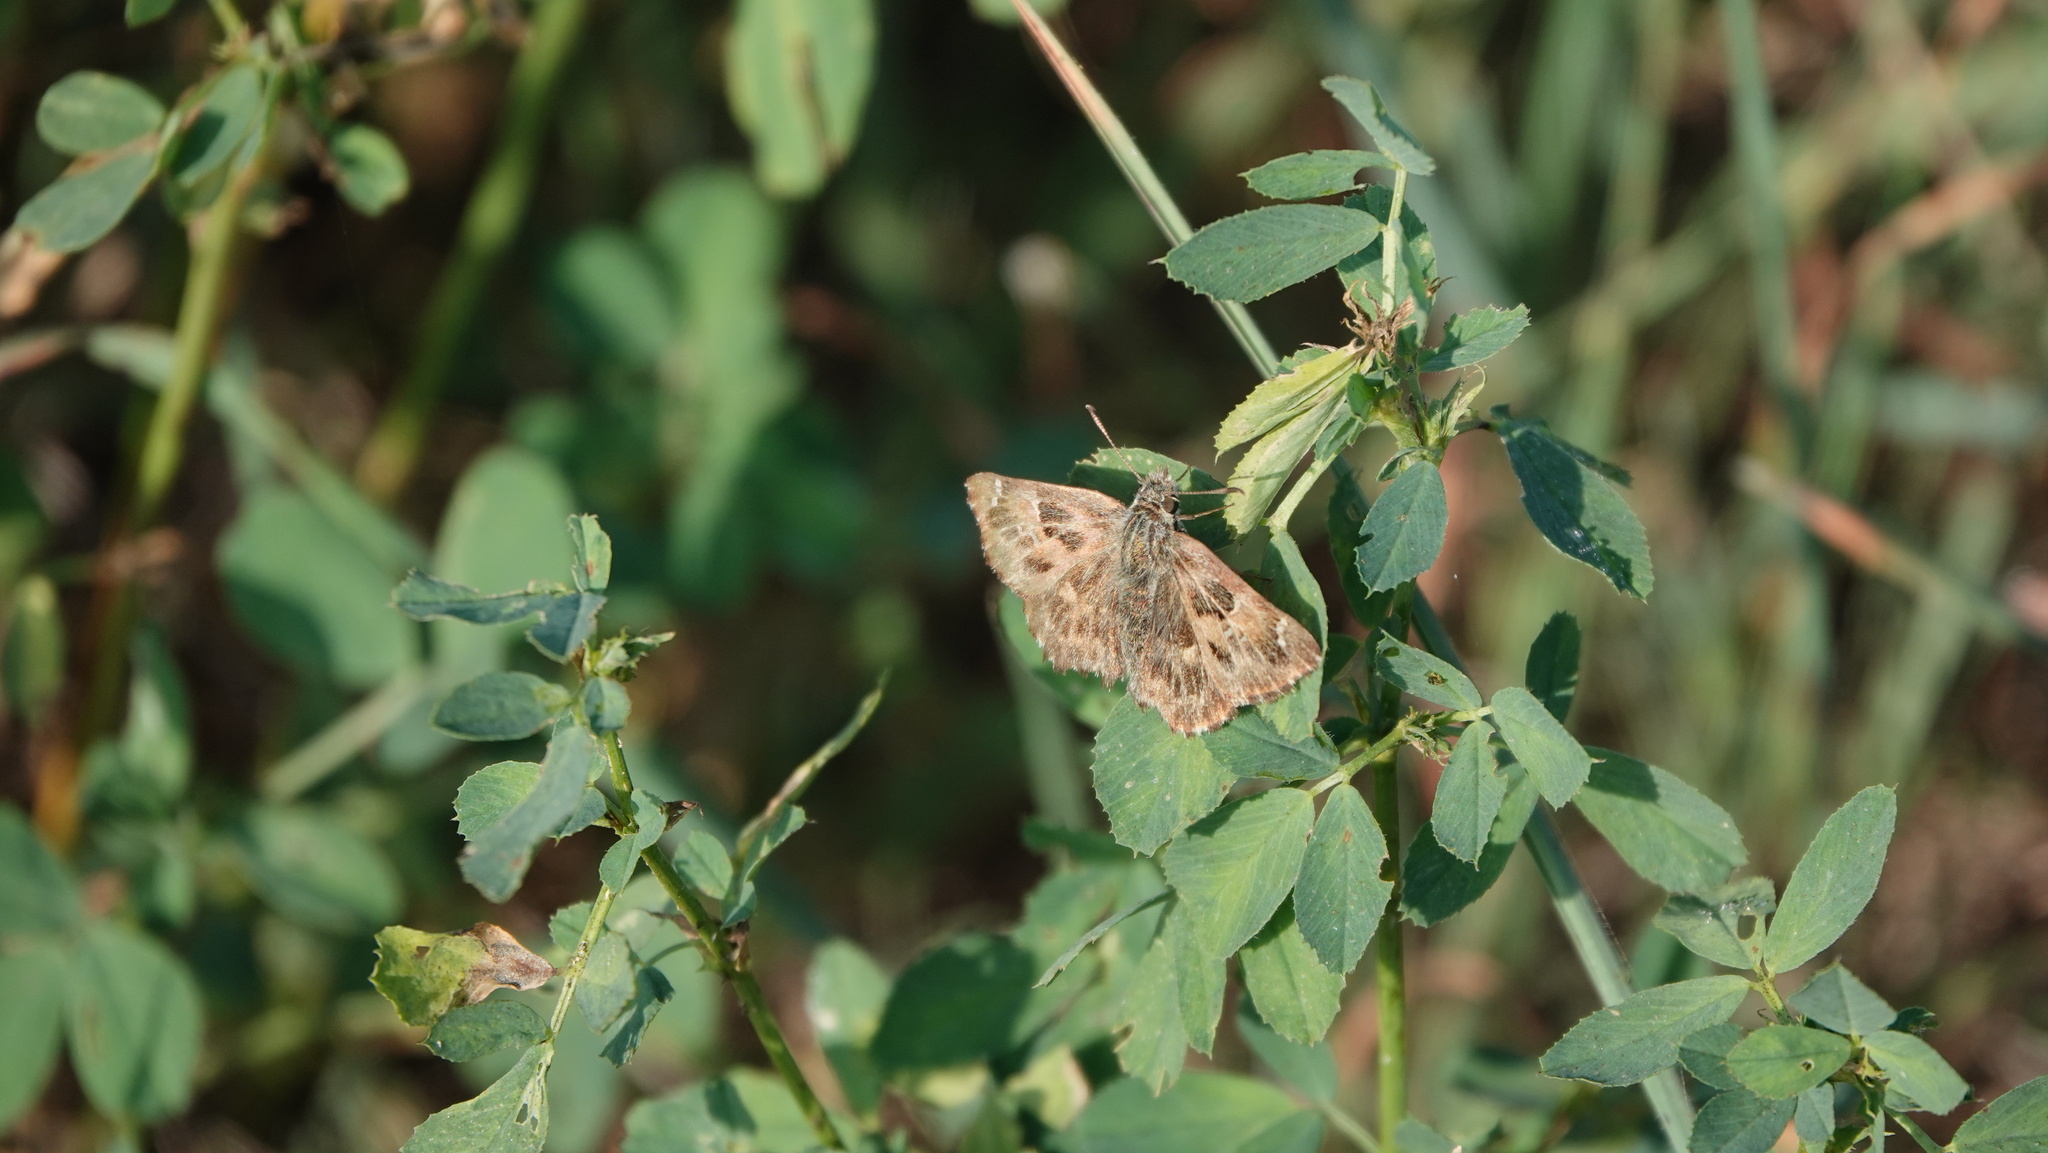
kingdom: Animalia
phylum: Arthropoda
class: Insecta
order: Lepidoptera
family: Hesperiidae
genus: Carcharodus
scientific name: Carcharodus alceae
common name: Mallow skipper
